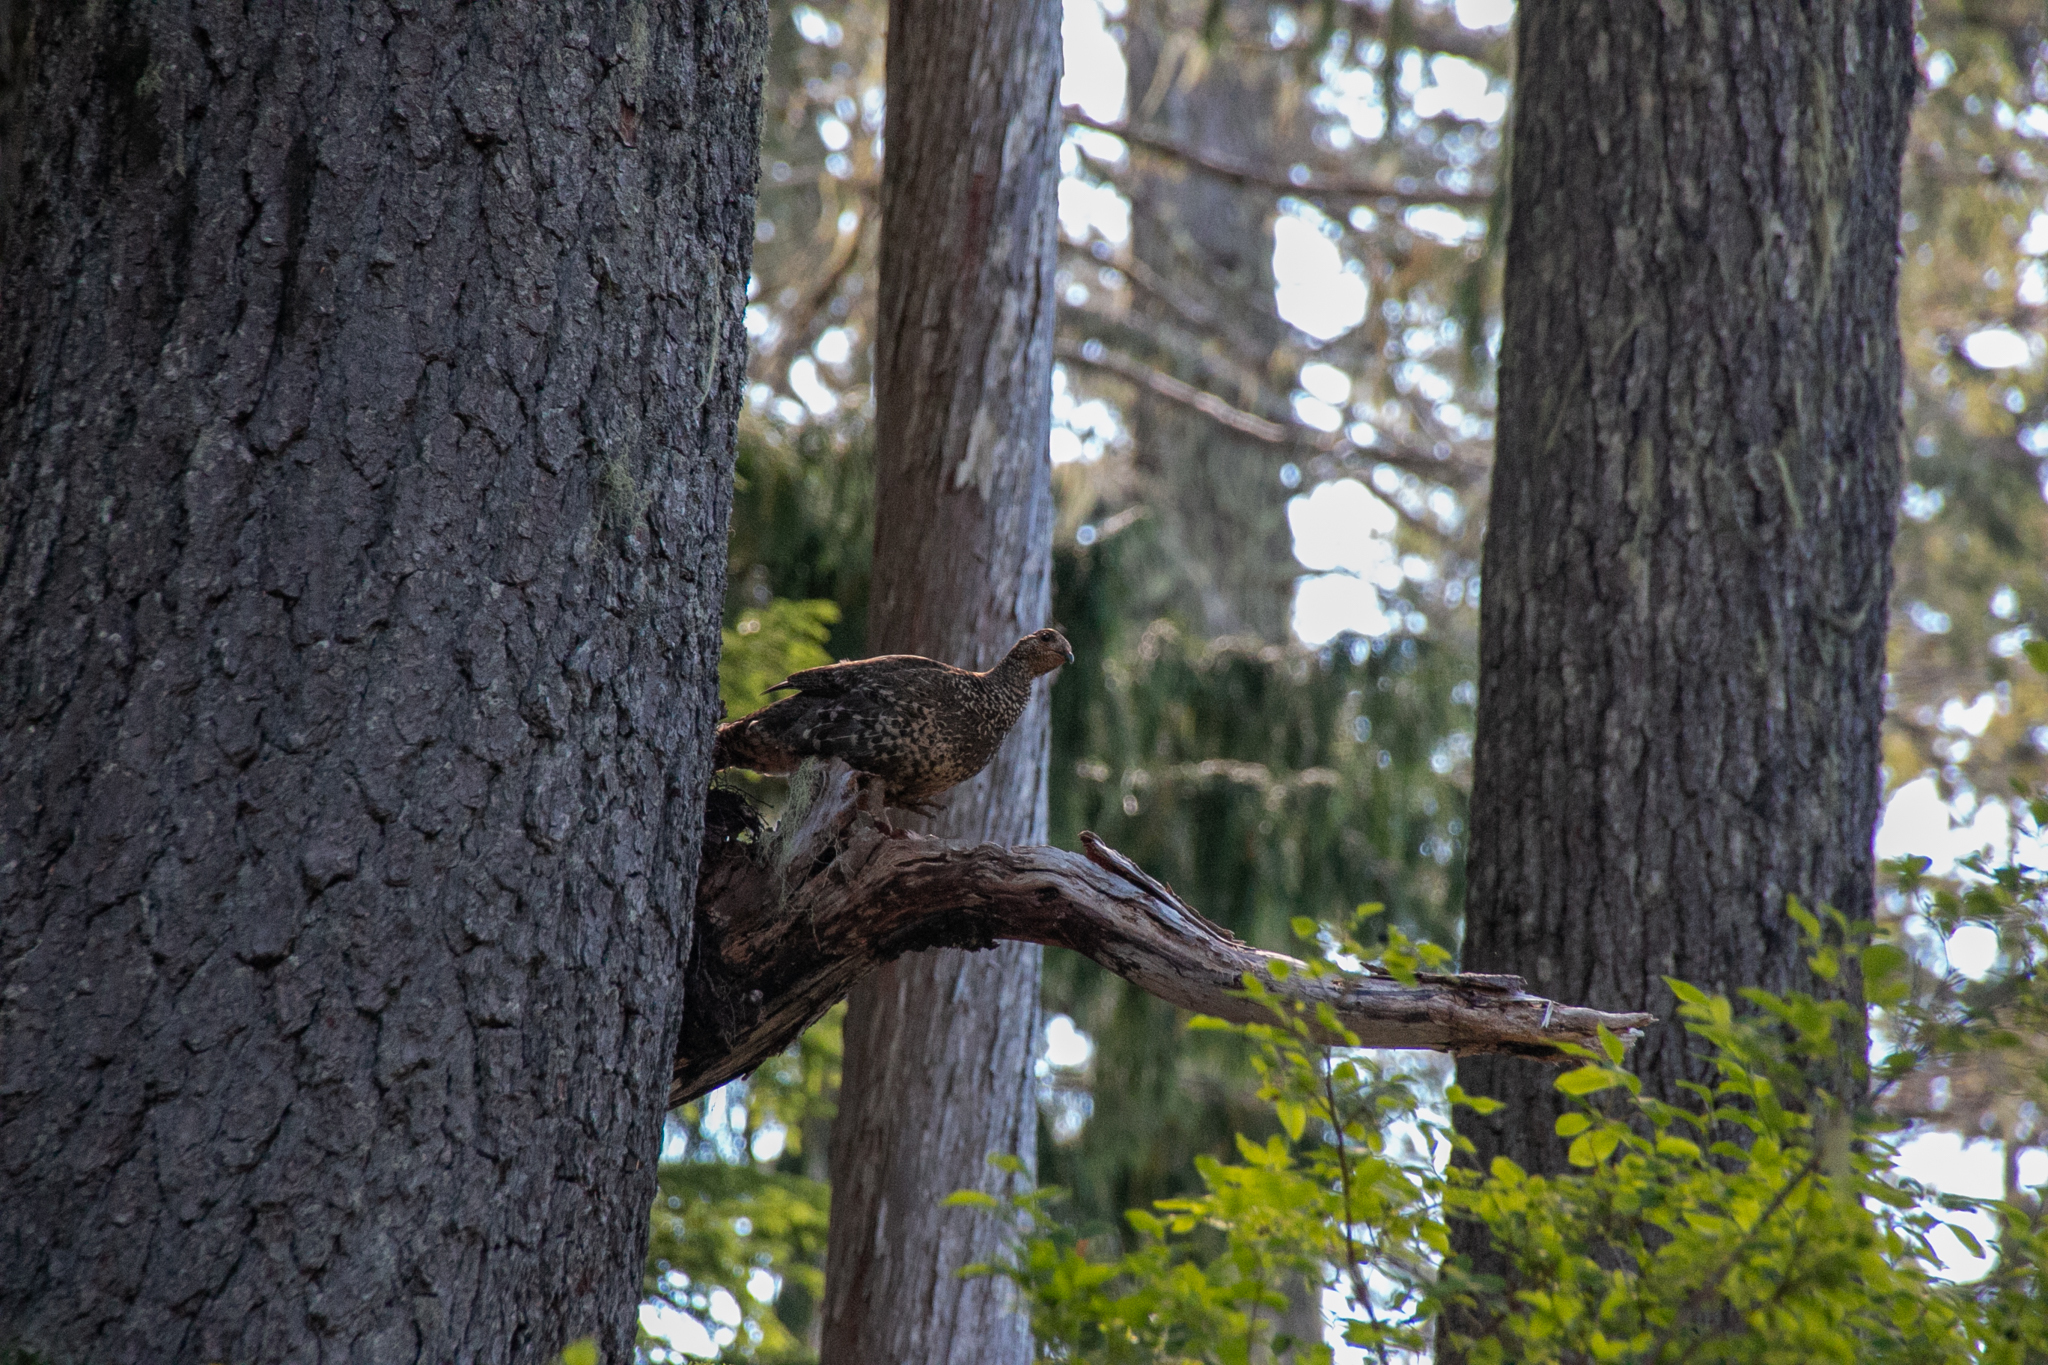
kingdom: Animalia
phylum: Chordata
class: Aves
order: Galliformes
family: Phasianidae
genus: Dendragapus
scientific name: Dendragapus fuliginosus
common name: Sooty grouse
